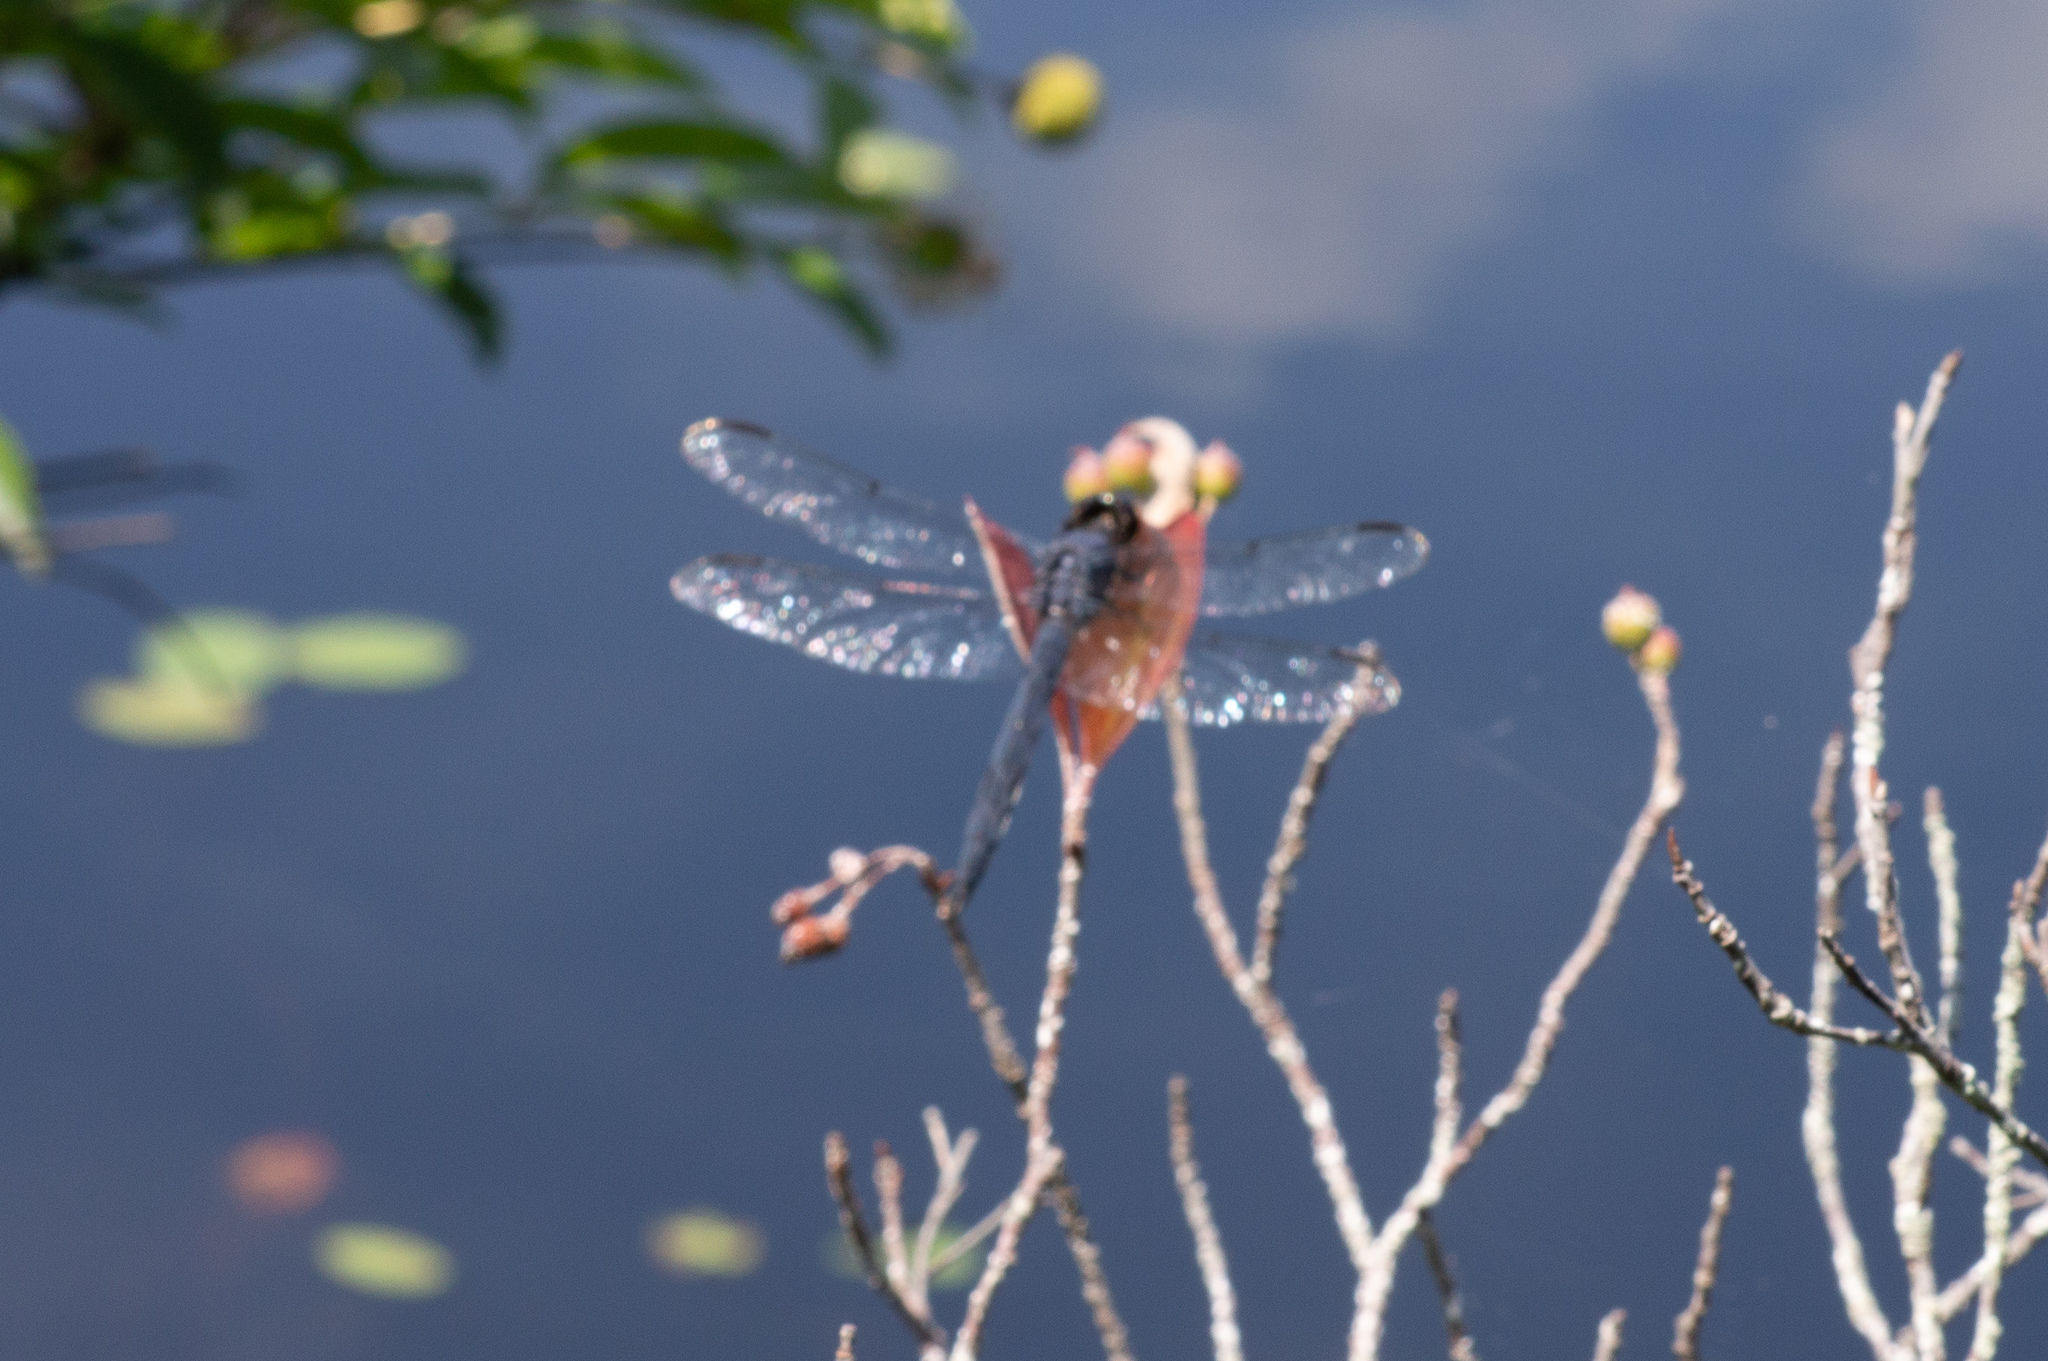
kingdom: Animalia
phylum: Arthropoda
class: Insecta
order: Odonata
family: Libellulidae
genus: Libellula
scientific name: Libellula incesta
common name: Slaty skimmer
